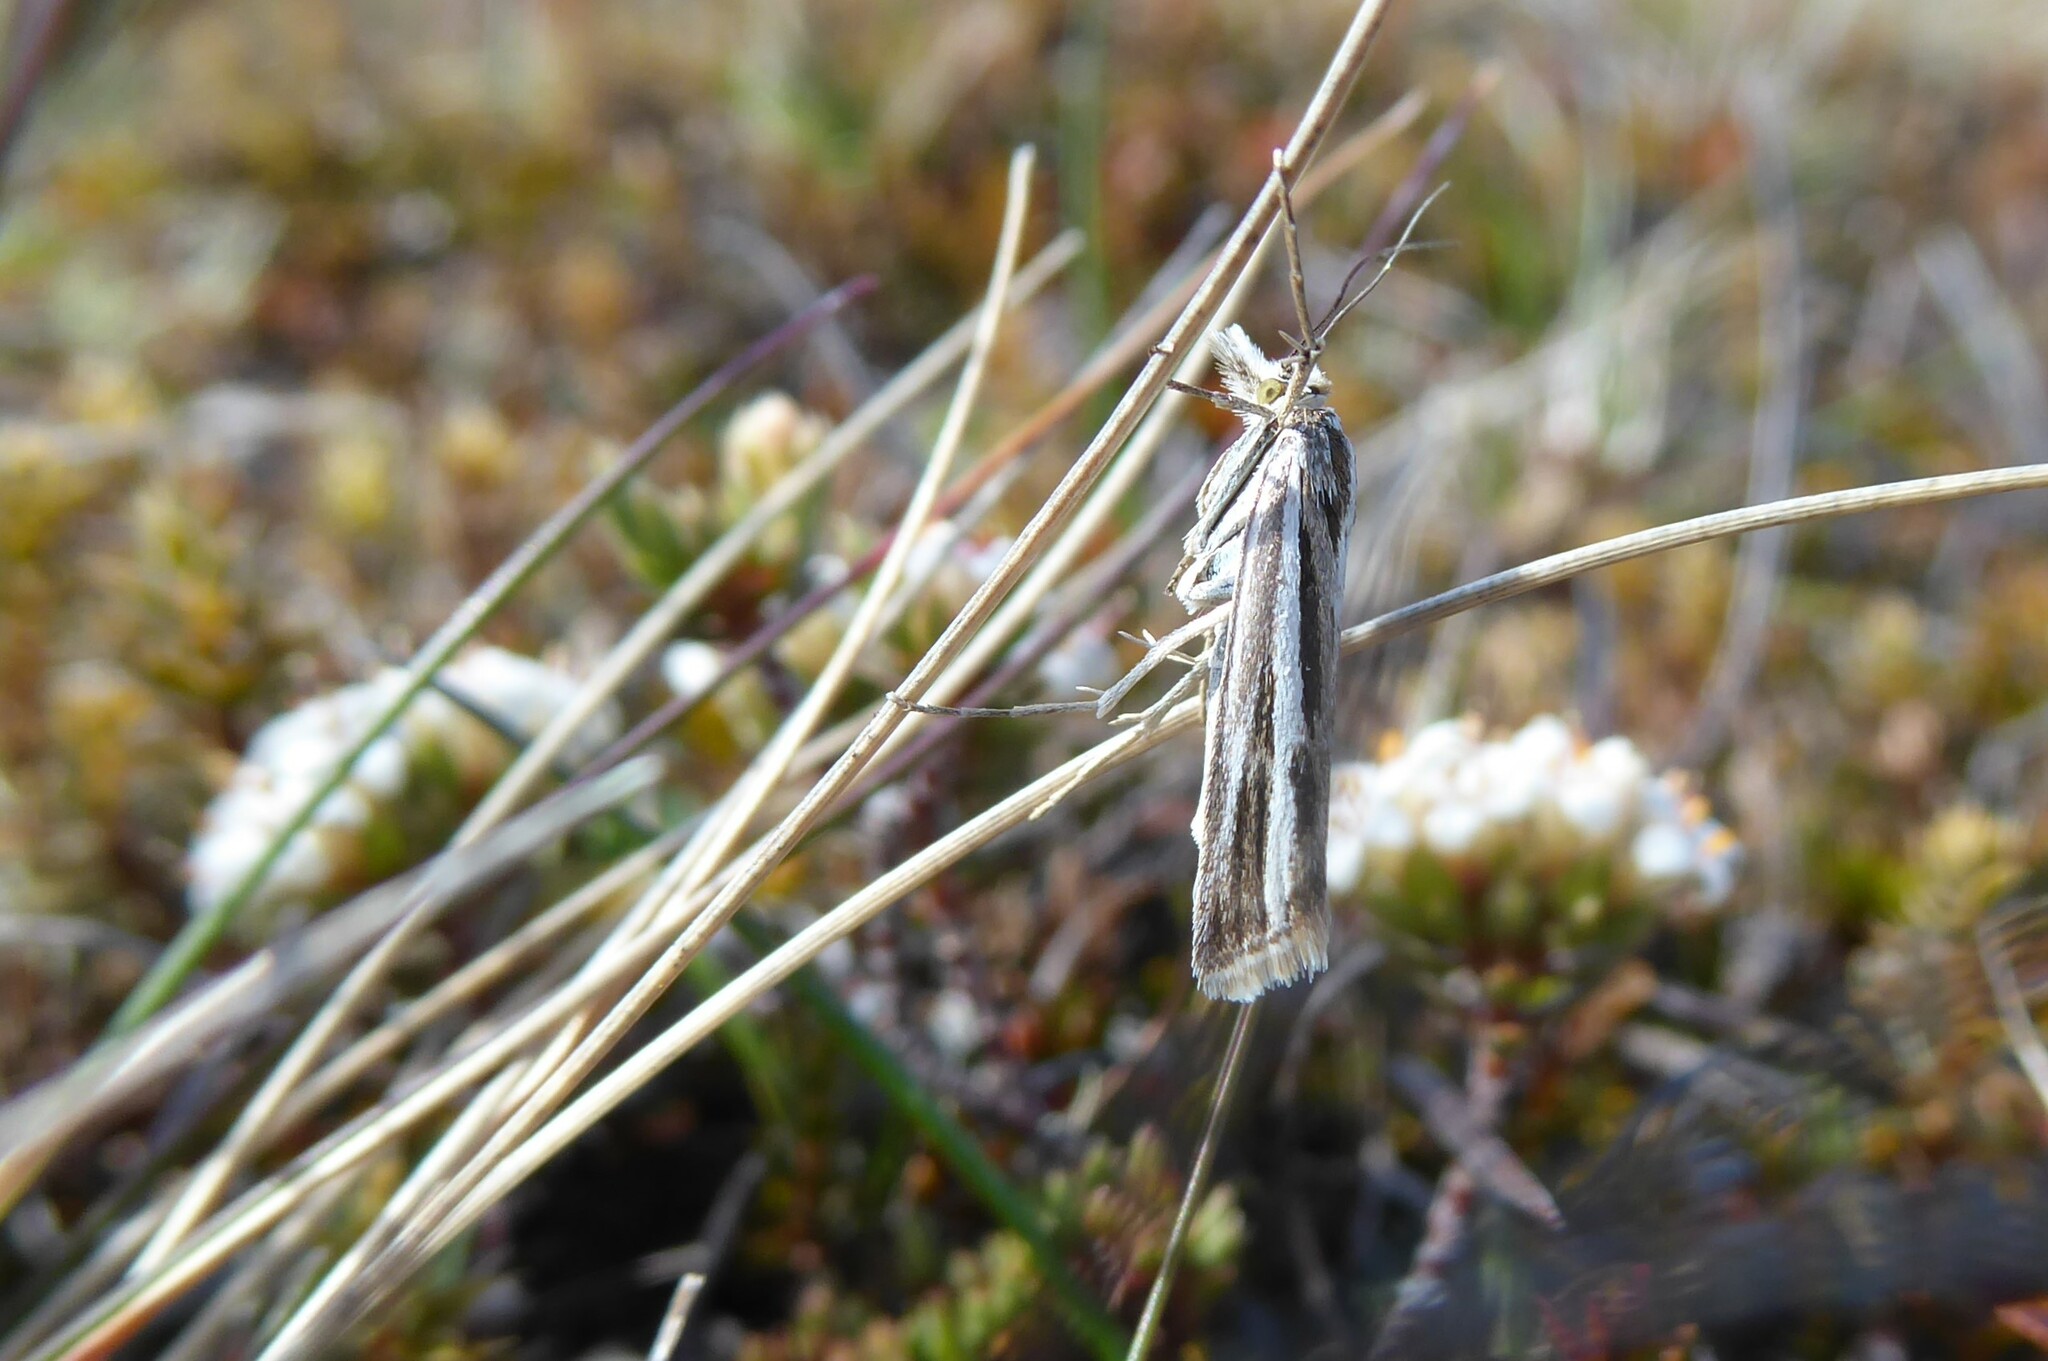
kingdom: Animalia
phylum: Arthropoda
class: Insecta
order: Lepidoptera
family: Crambidae
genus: Orocrambus
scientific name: Orocrambus corruptus
